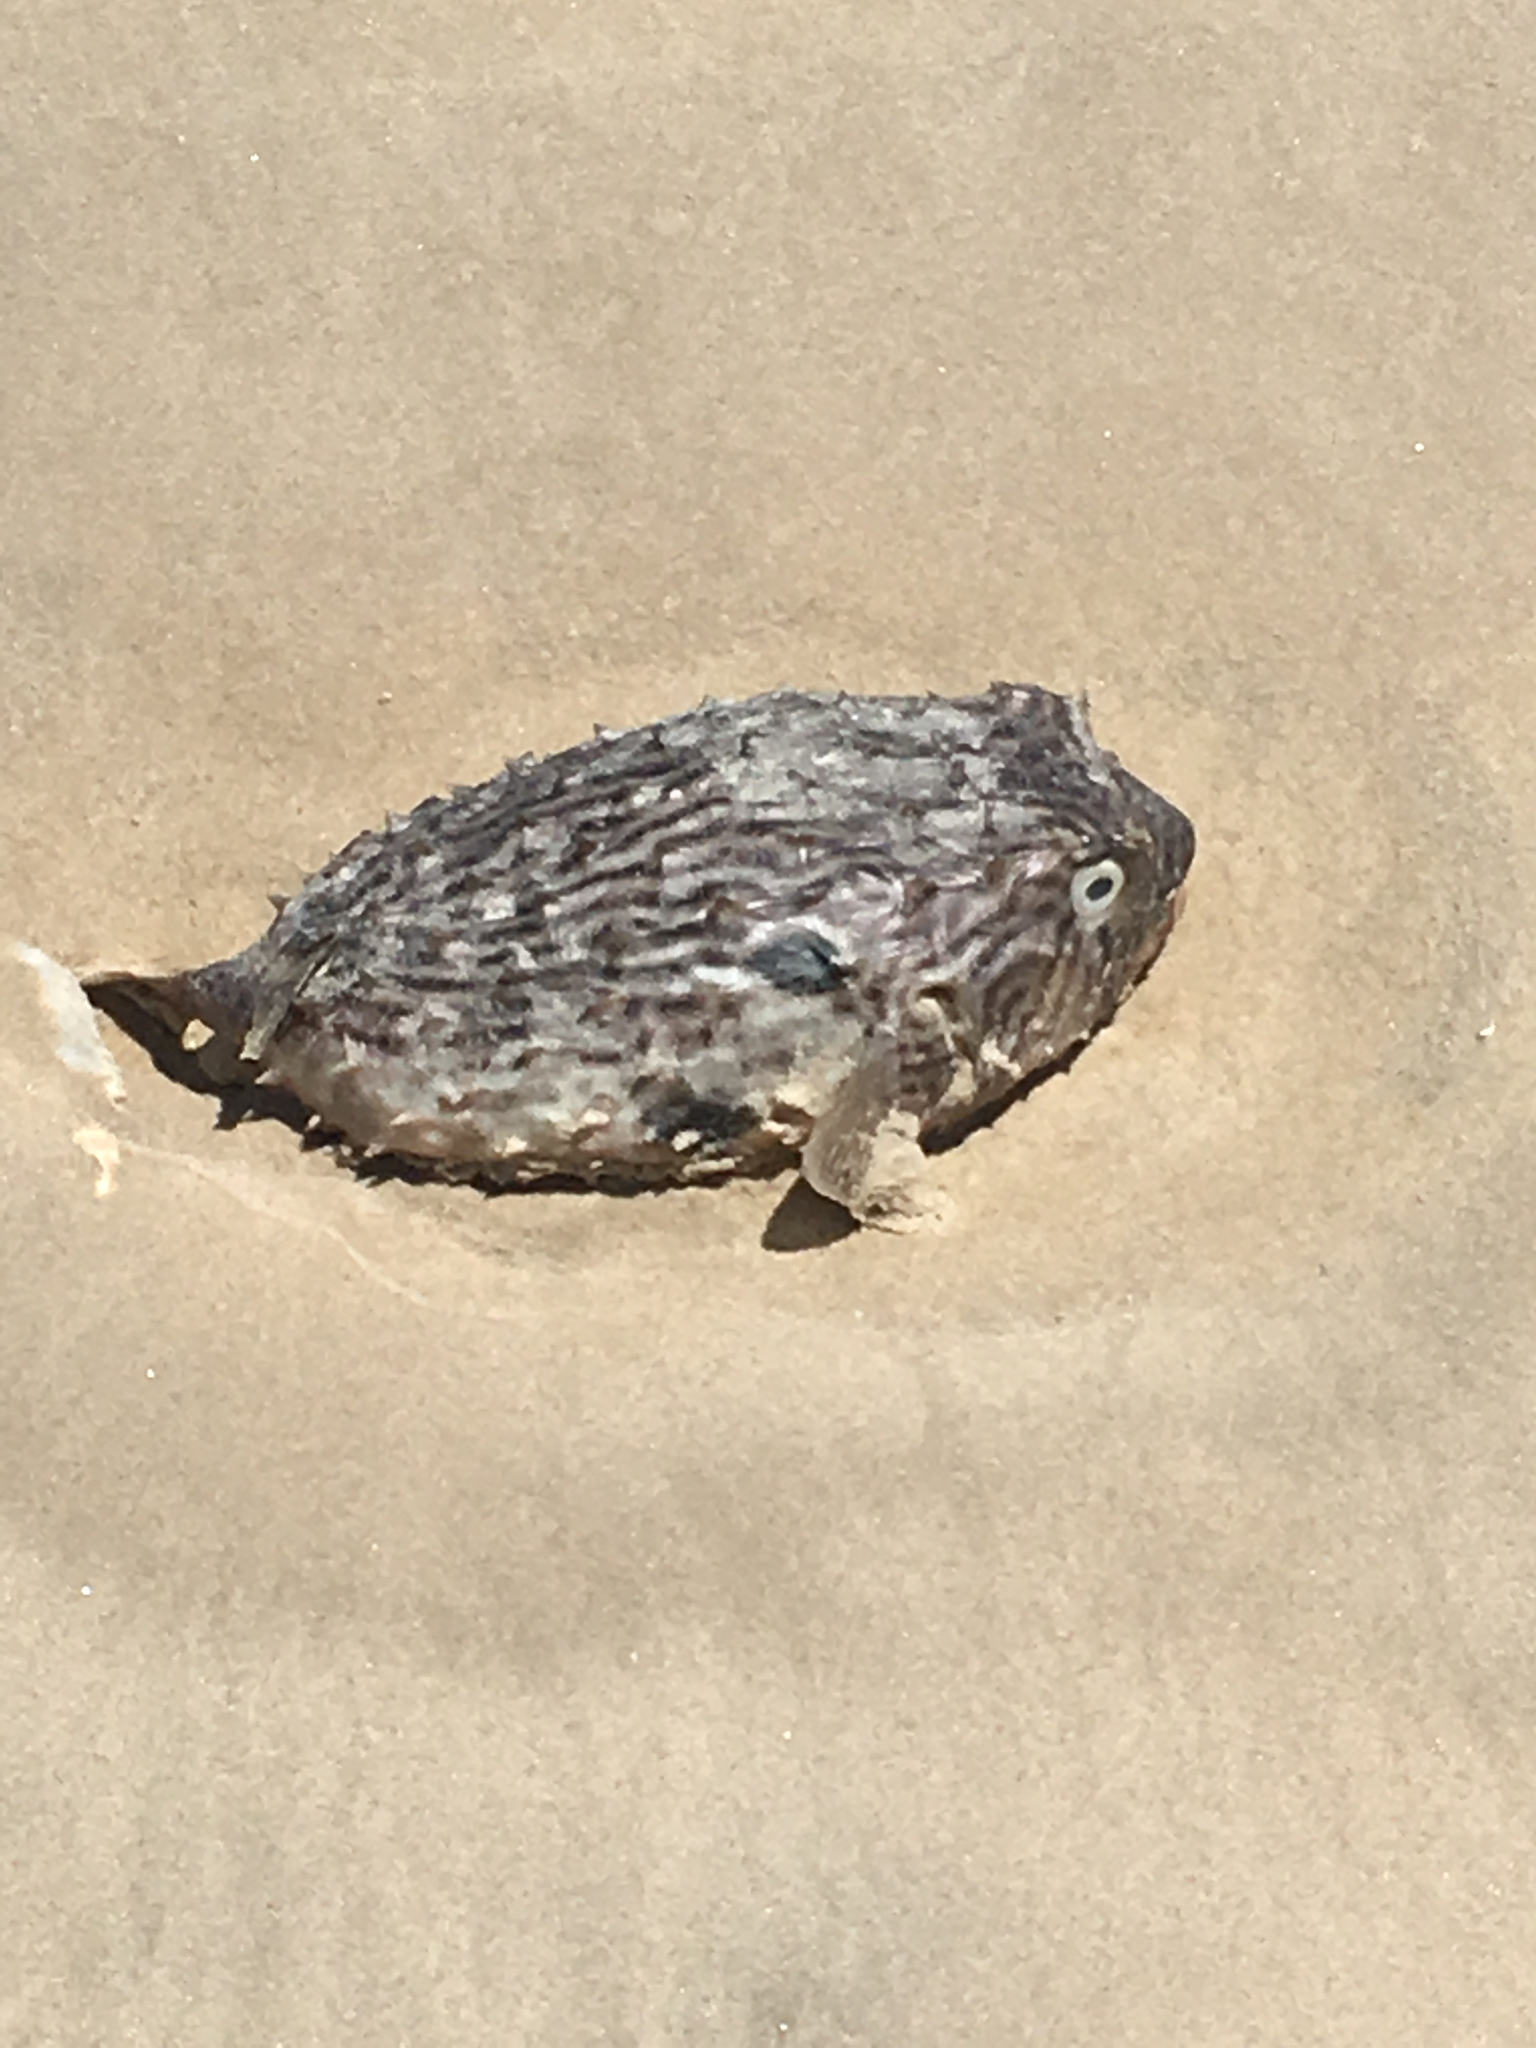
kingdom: Animalia
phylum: Chordata
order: Tetraodontiformes
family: Diodontidae
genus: Chilomycterus
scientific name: Chilomycterus schoepfii
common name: Striped burrfish
